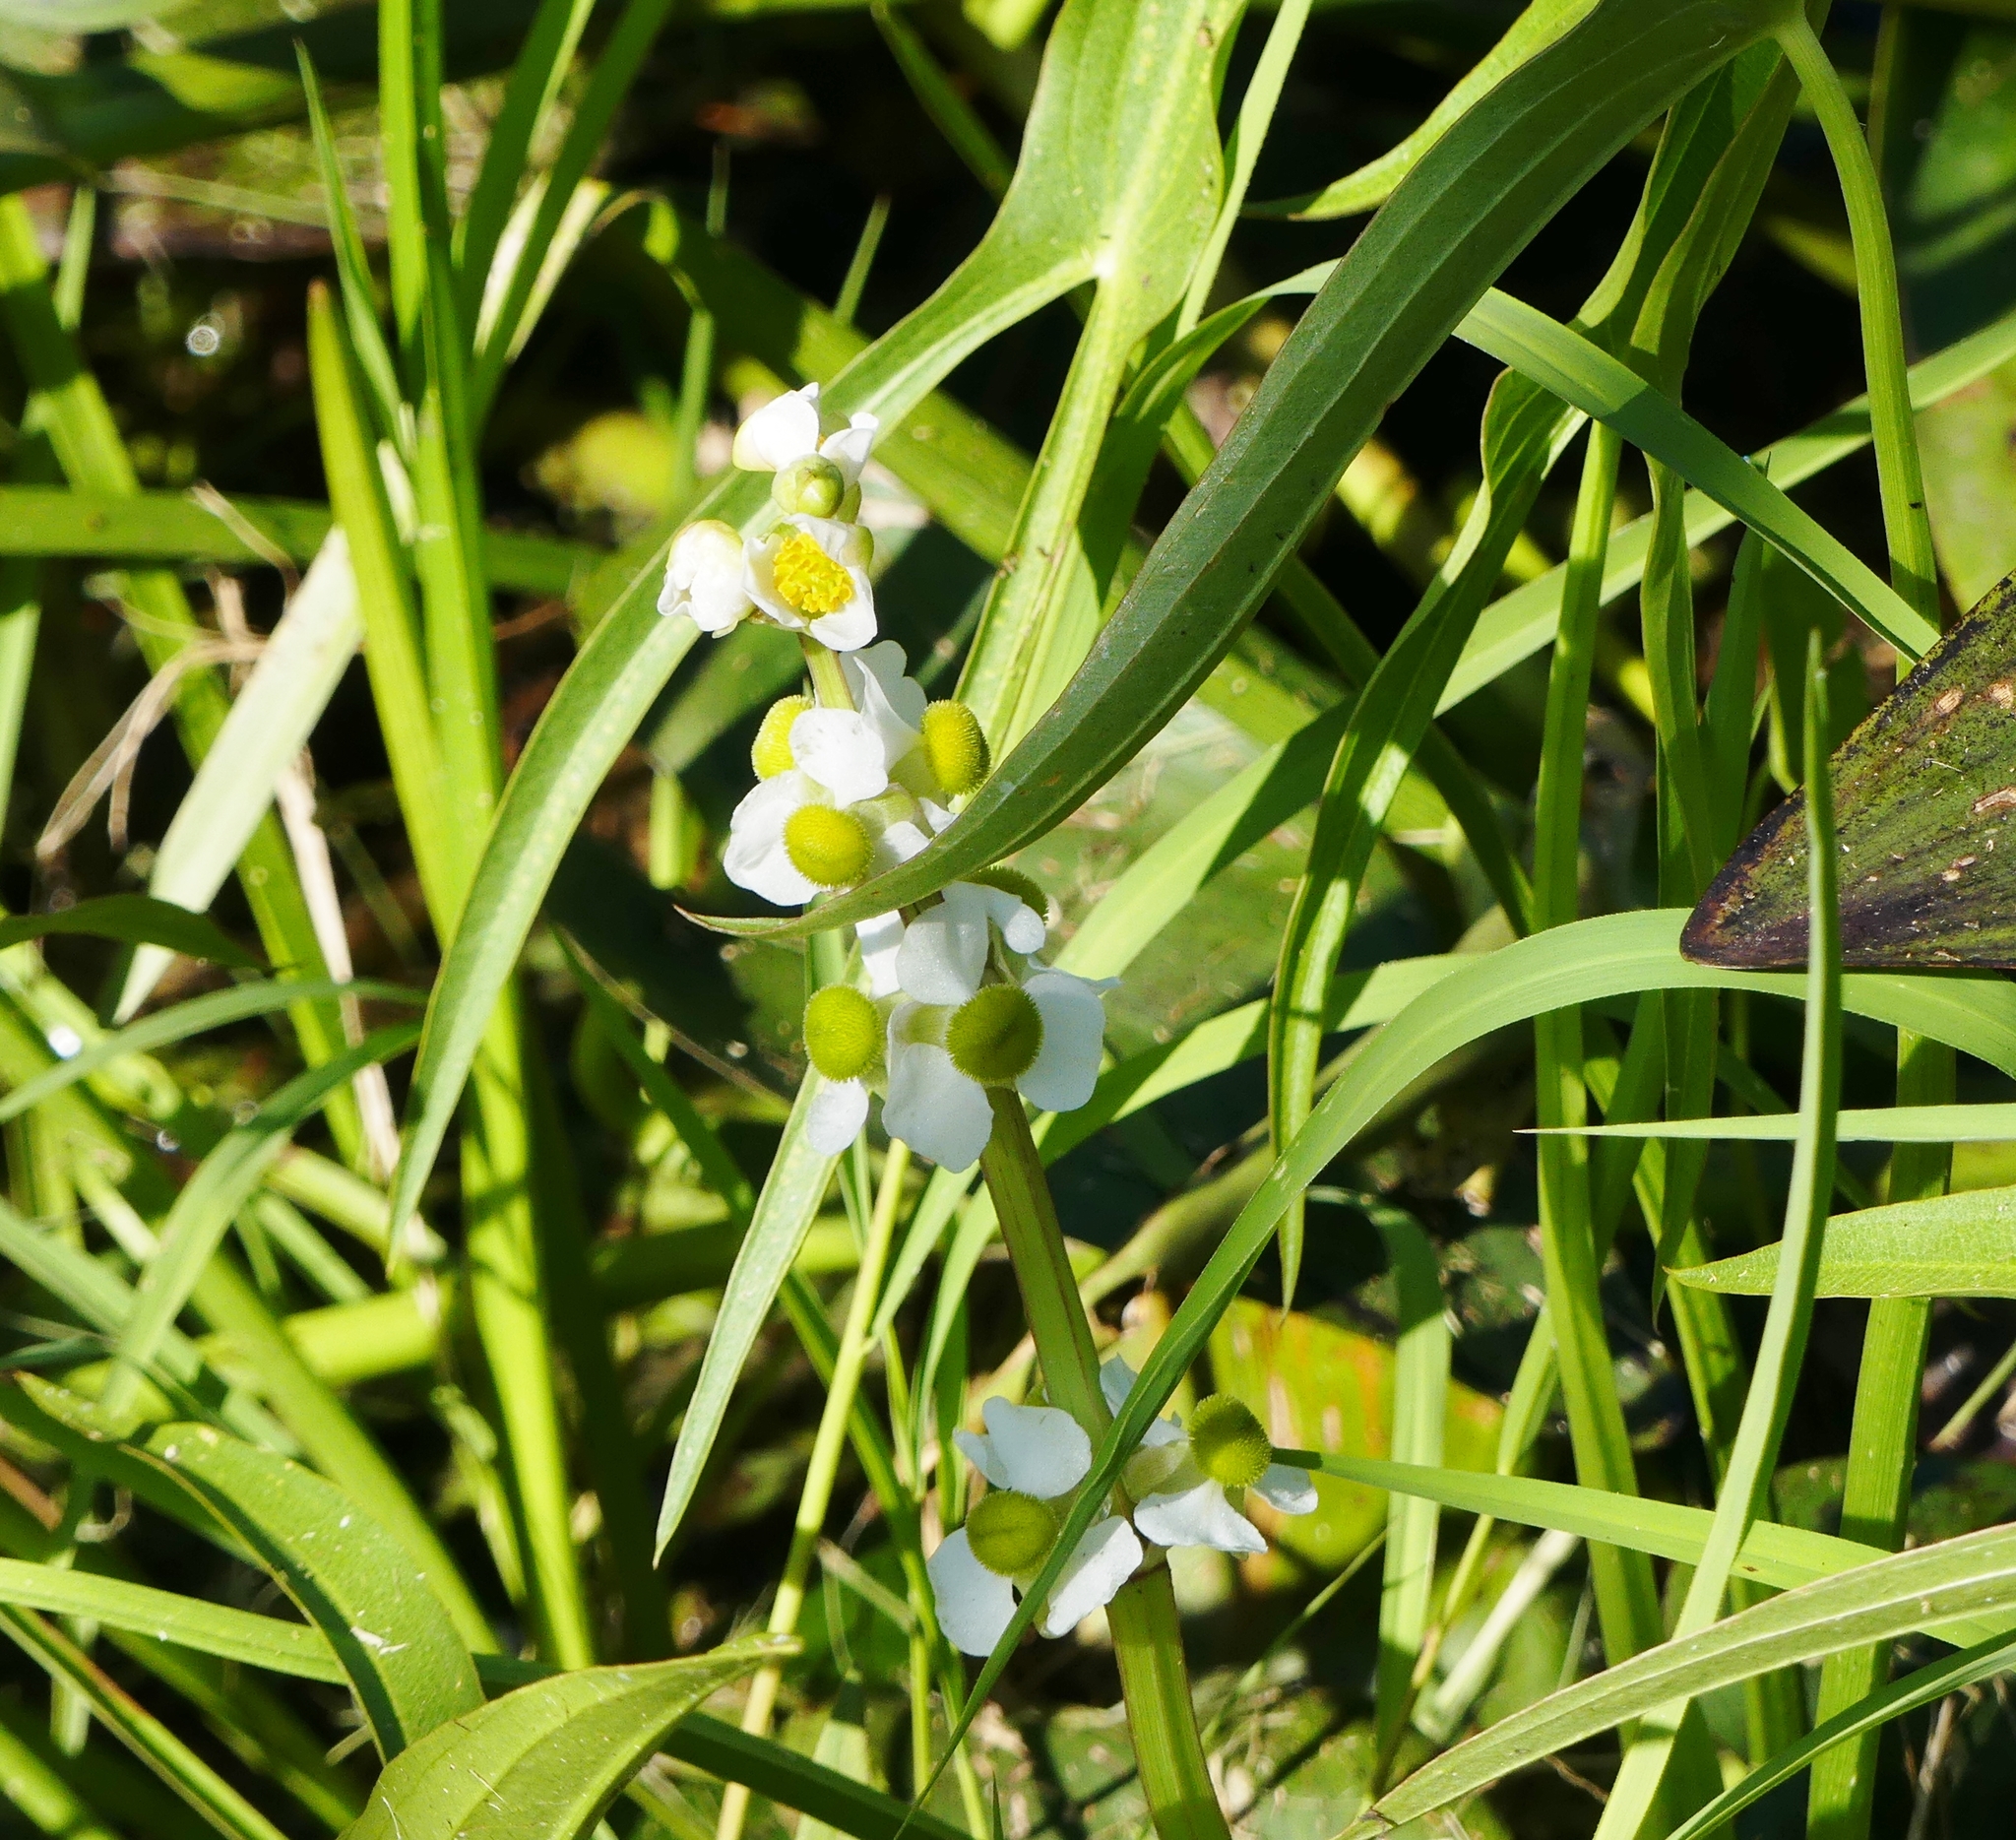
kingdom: Plantae
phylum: Tracheophyta
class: Liliopsida
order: Alismatales
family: Alismataceae
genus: Sagittaria
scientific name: Sagittaria latifolia
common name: Duck-potato
